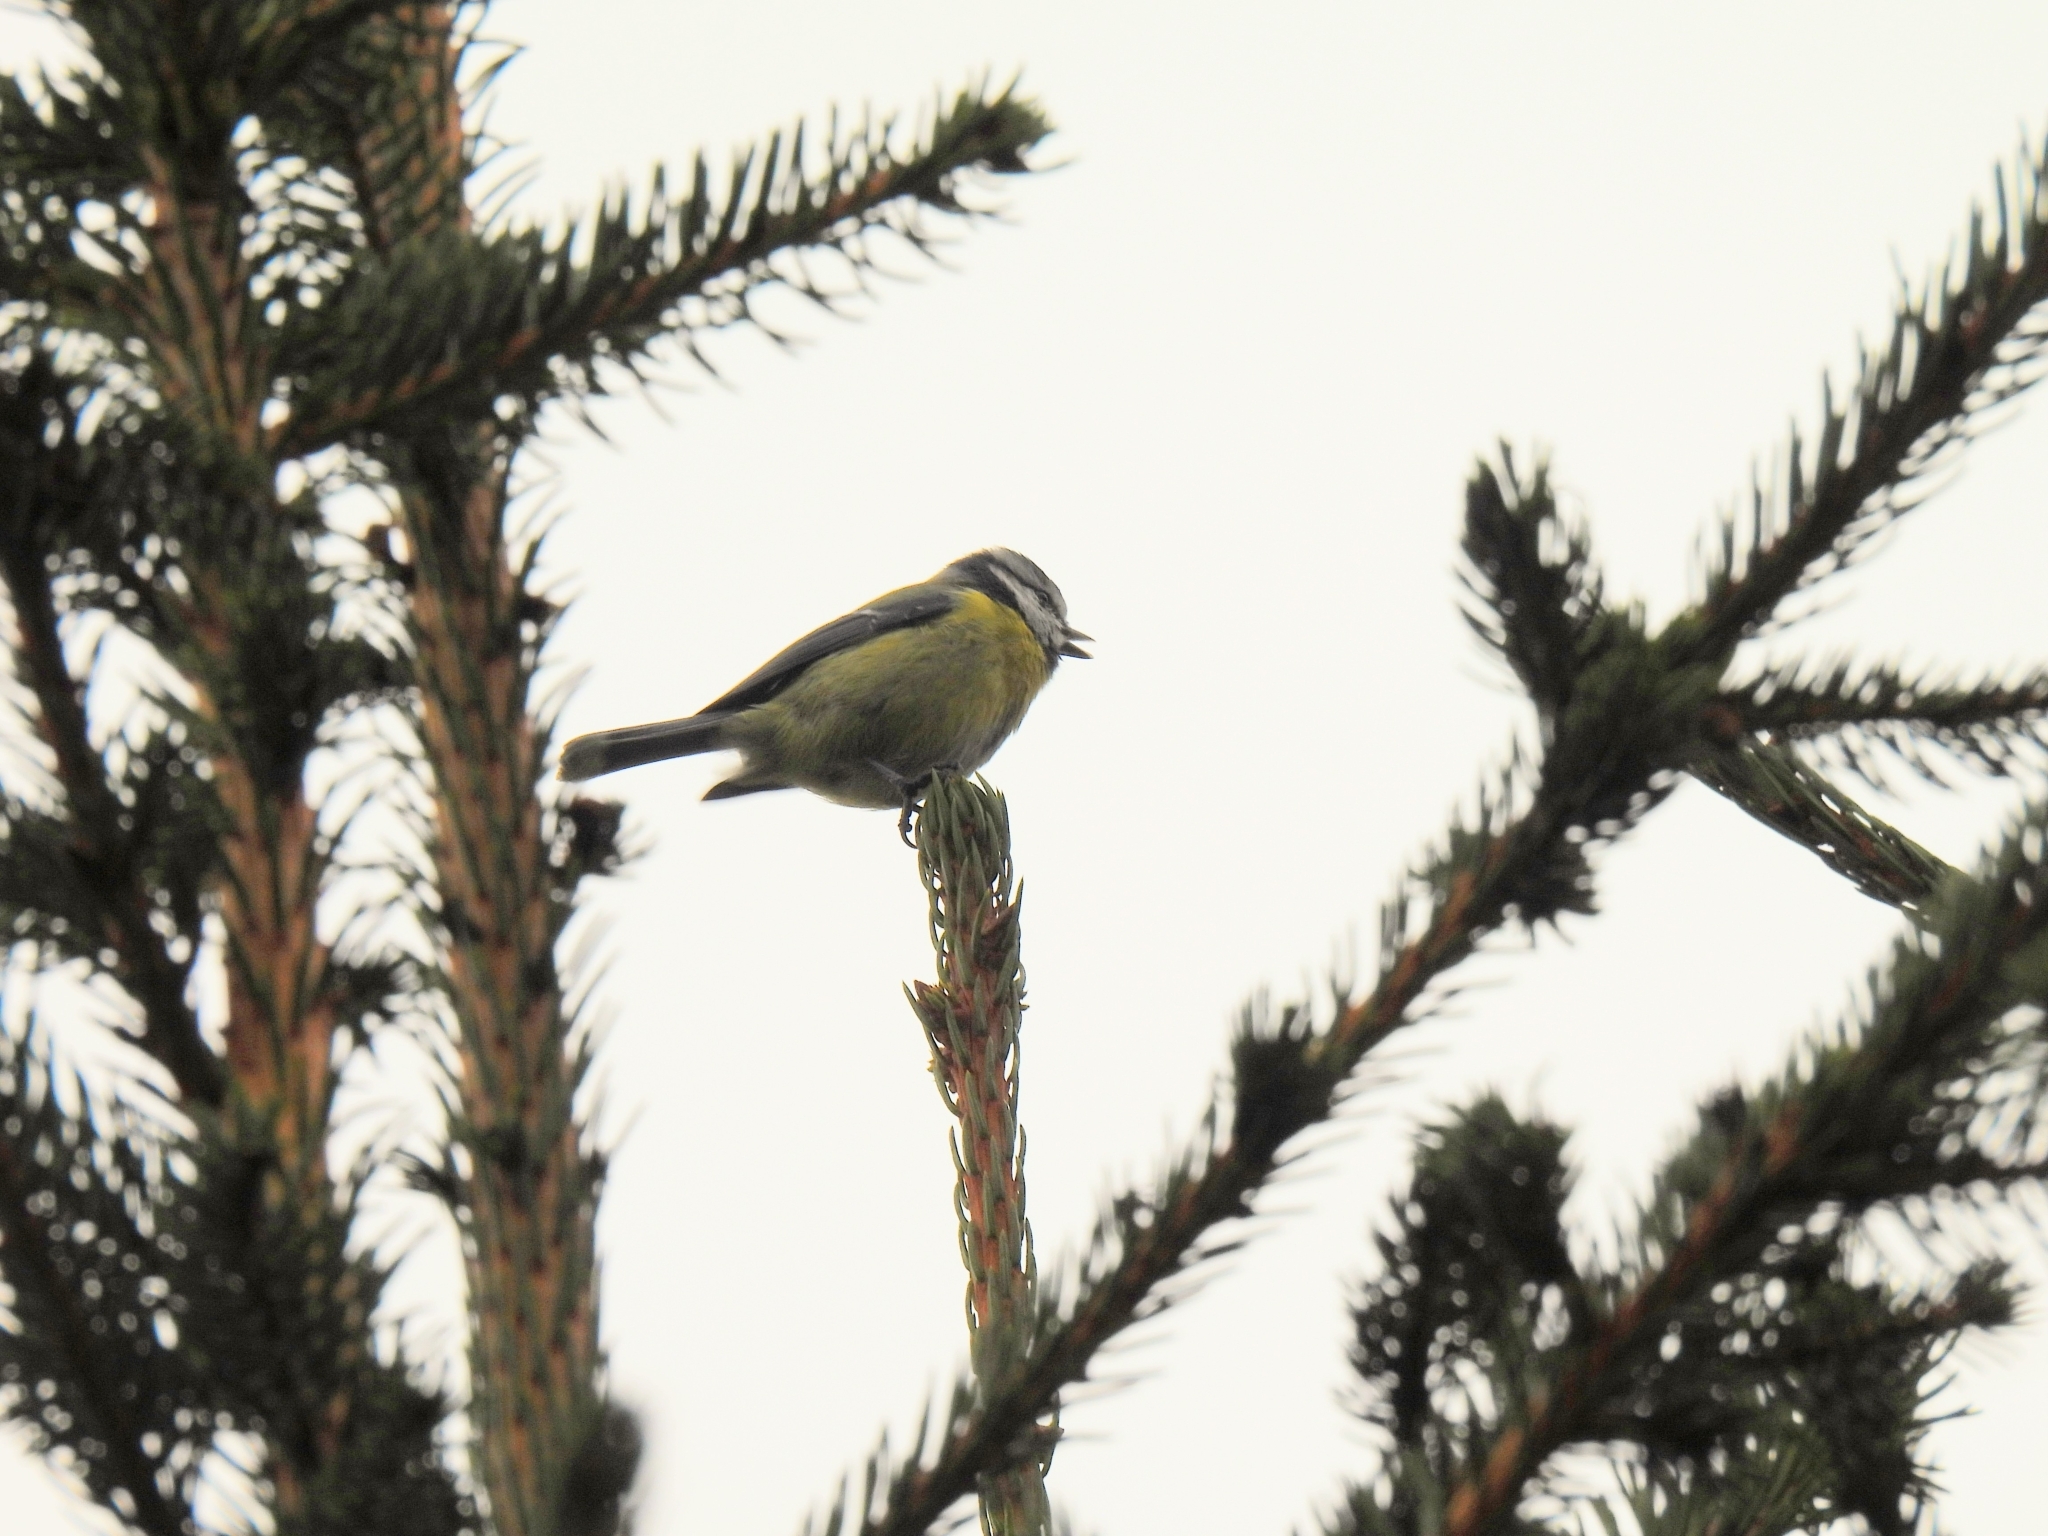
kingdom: Animalia
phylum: Chordata
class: Aves
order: Passeriformes
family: Paridae
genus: Cyanistes
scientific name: Cyanistes caeruleus
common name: Eurasian blue tit
